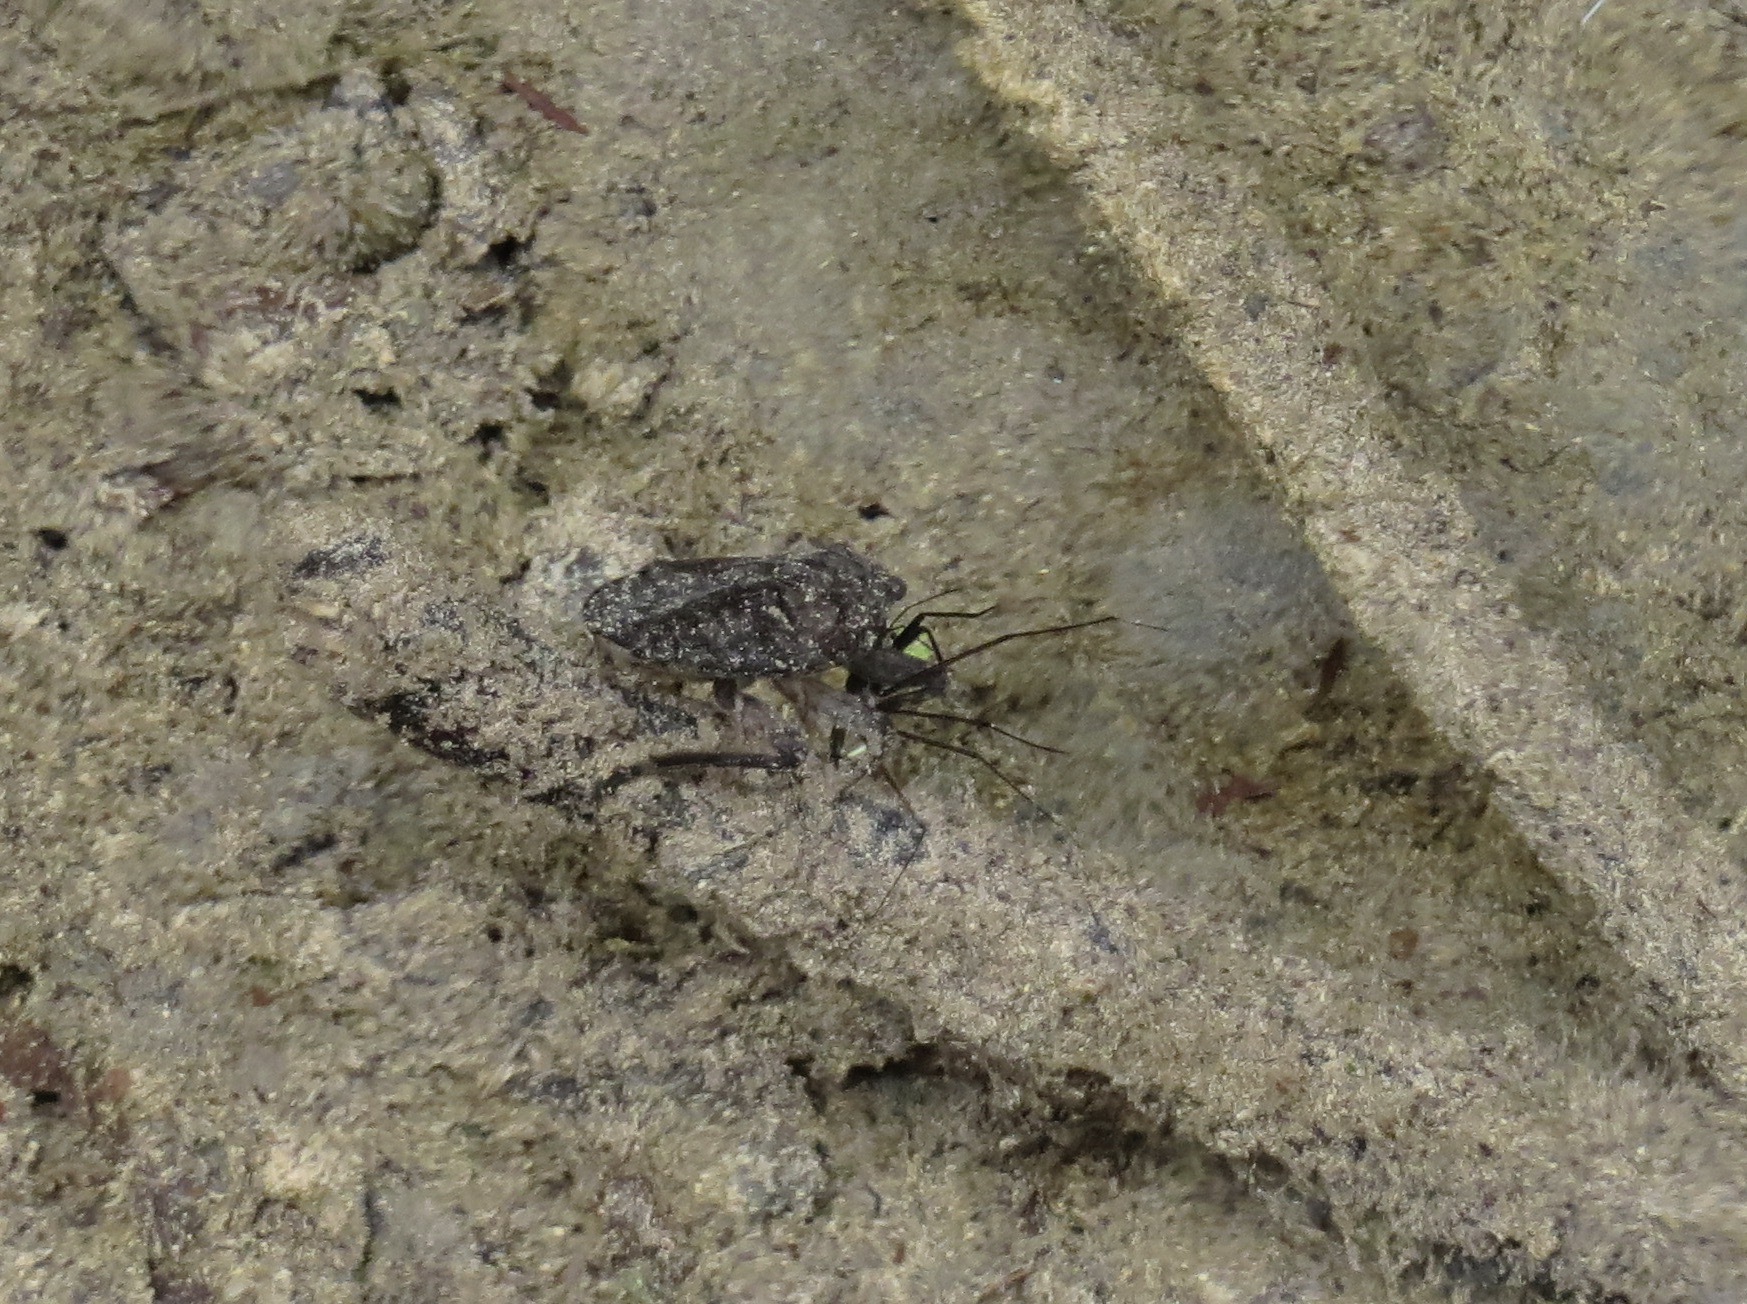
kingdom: Animalia
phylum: Arthropoda
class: Insecta
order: Hemiptera
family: Belostomatidae
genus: Abedus
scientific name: Abedus indentatus
